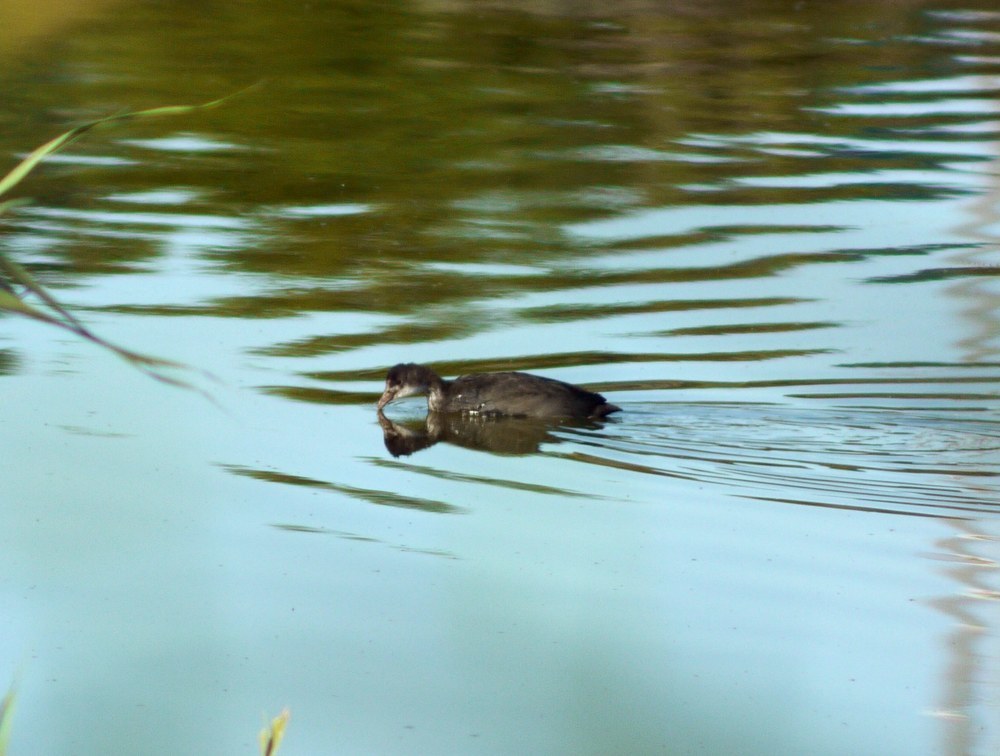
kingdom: Animalia
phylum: Chordata
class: Aves
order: Gruiformes
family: Rallidae
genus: Fulica
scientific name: Fulica atra
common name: Eurasian coot
